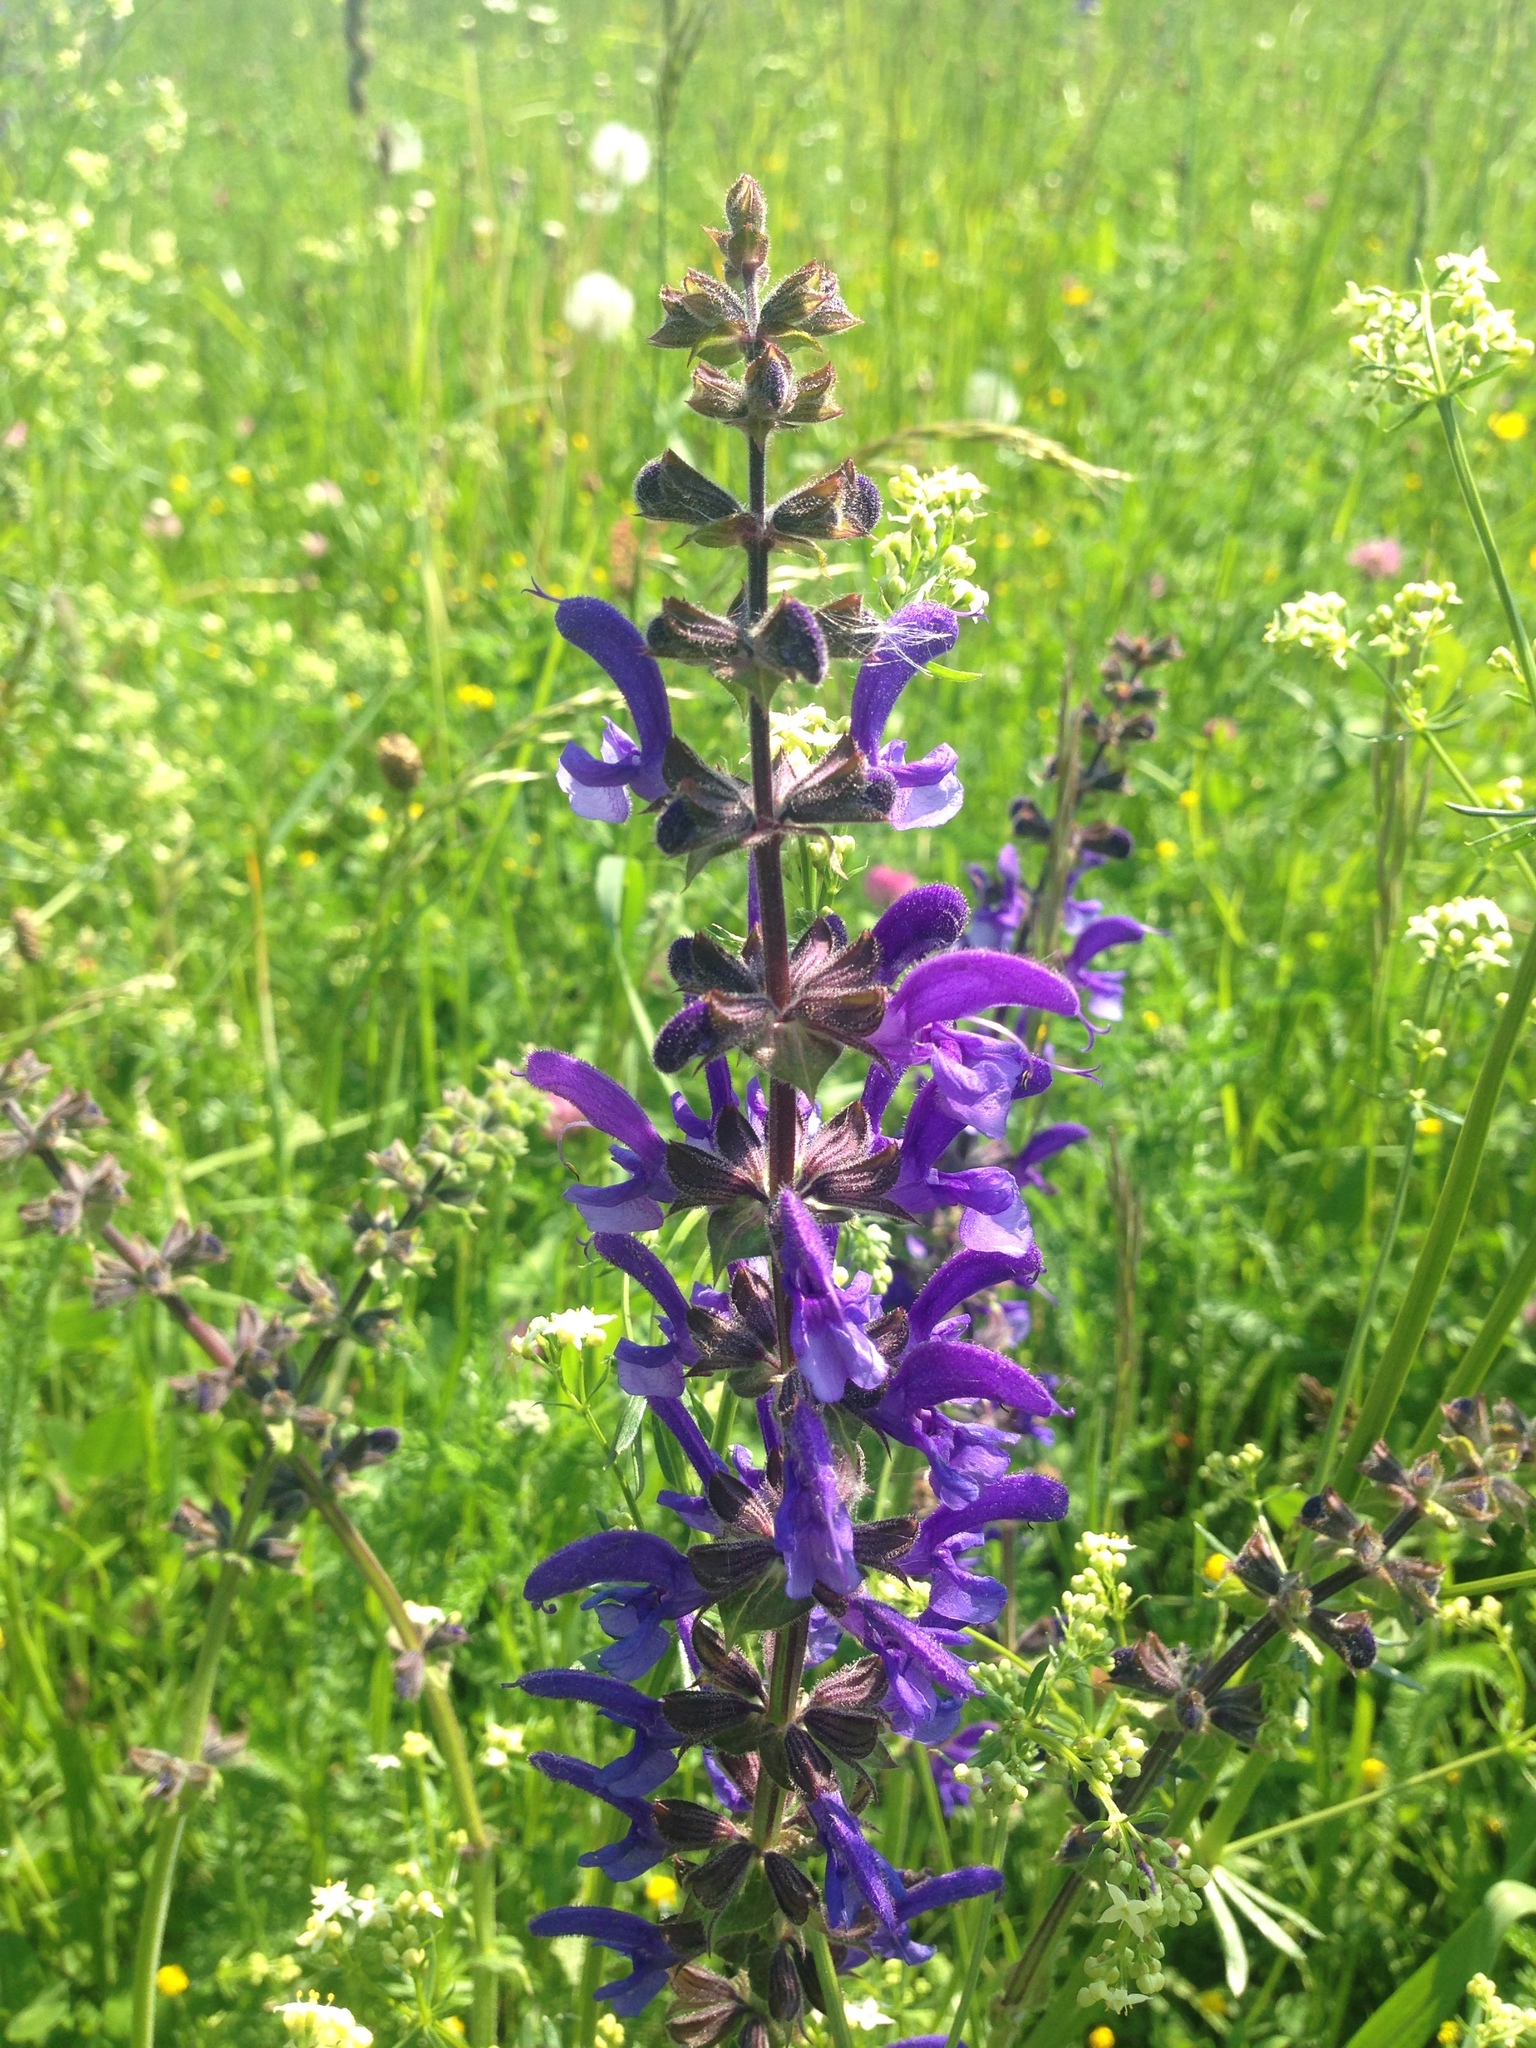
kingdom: Plantae
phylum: Tracheophyta
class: Magnoliopsida
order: Lamiales
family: Lamiaceae
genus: Salvia
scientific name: Salvia pratensis
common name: Meadow sage
